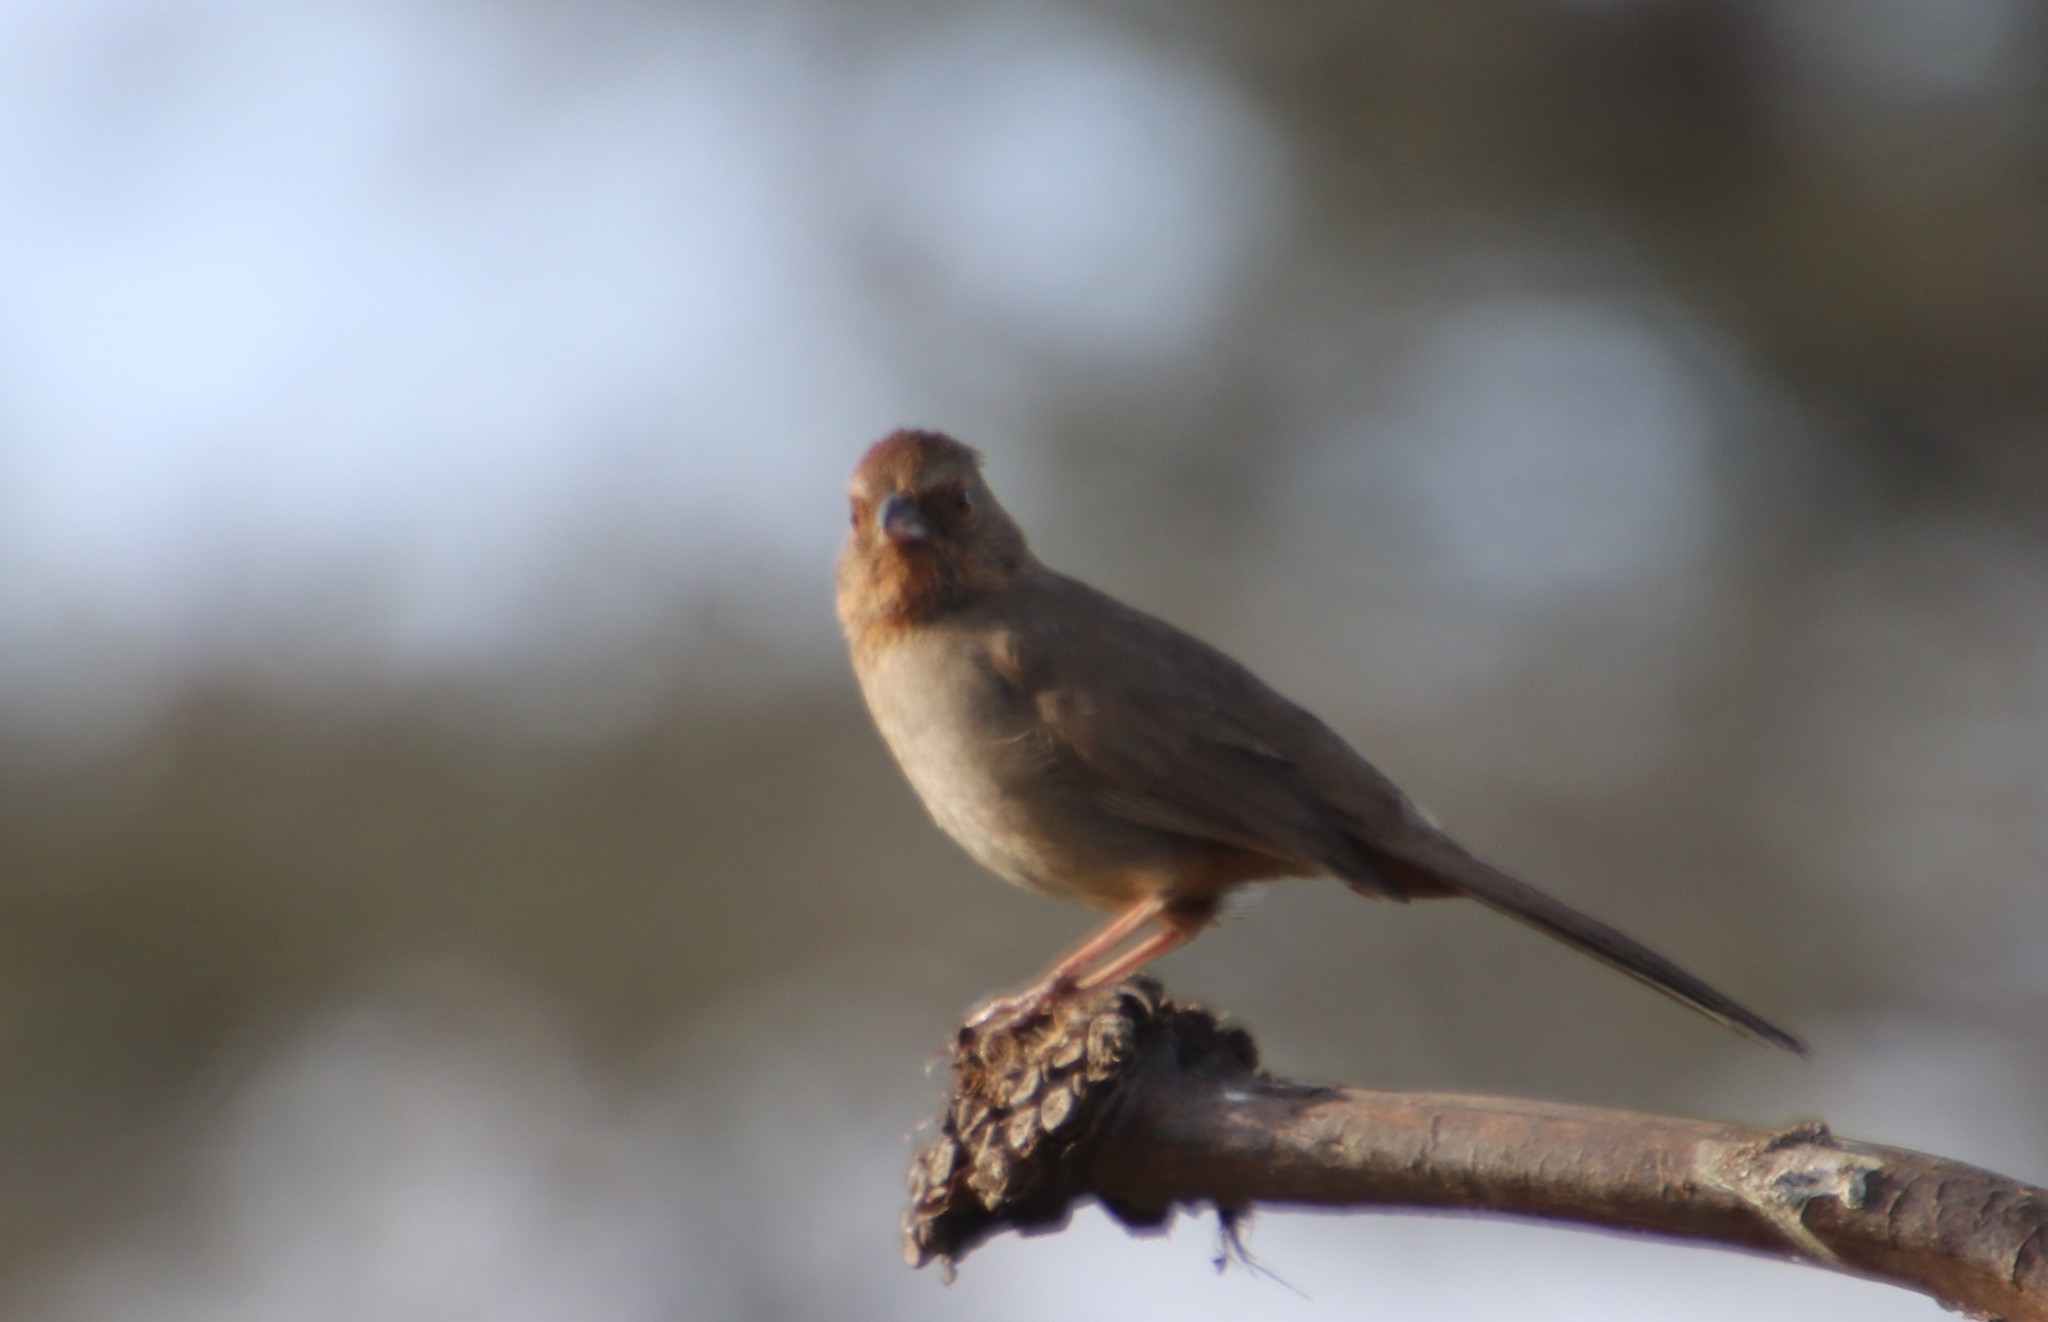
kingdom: Animalia
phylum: Chordata
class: Aves
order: Passeriformes
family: Passerellidae
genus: Melozone
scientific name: Melozone crissalis
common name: California towhee
